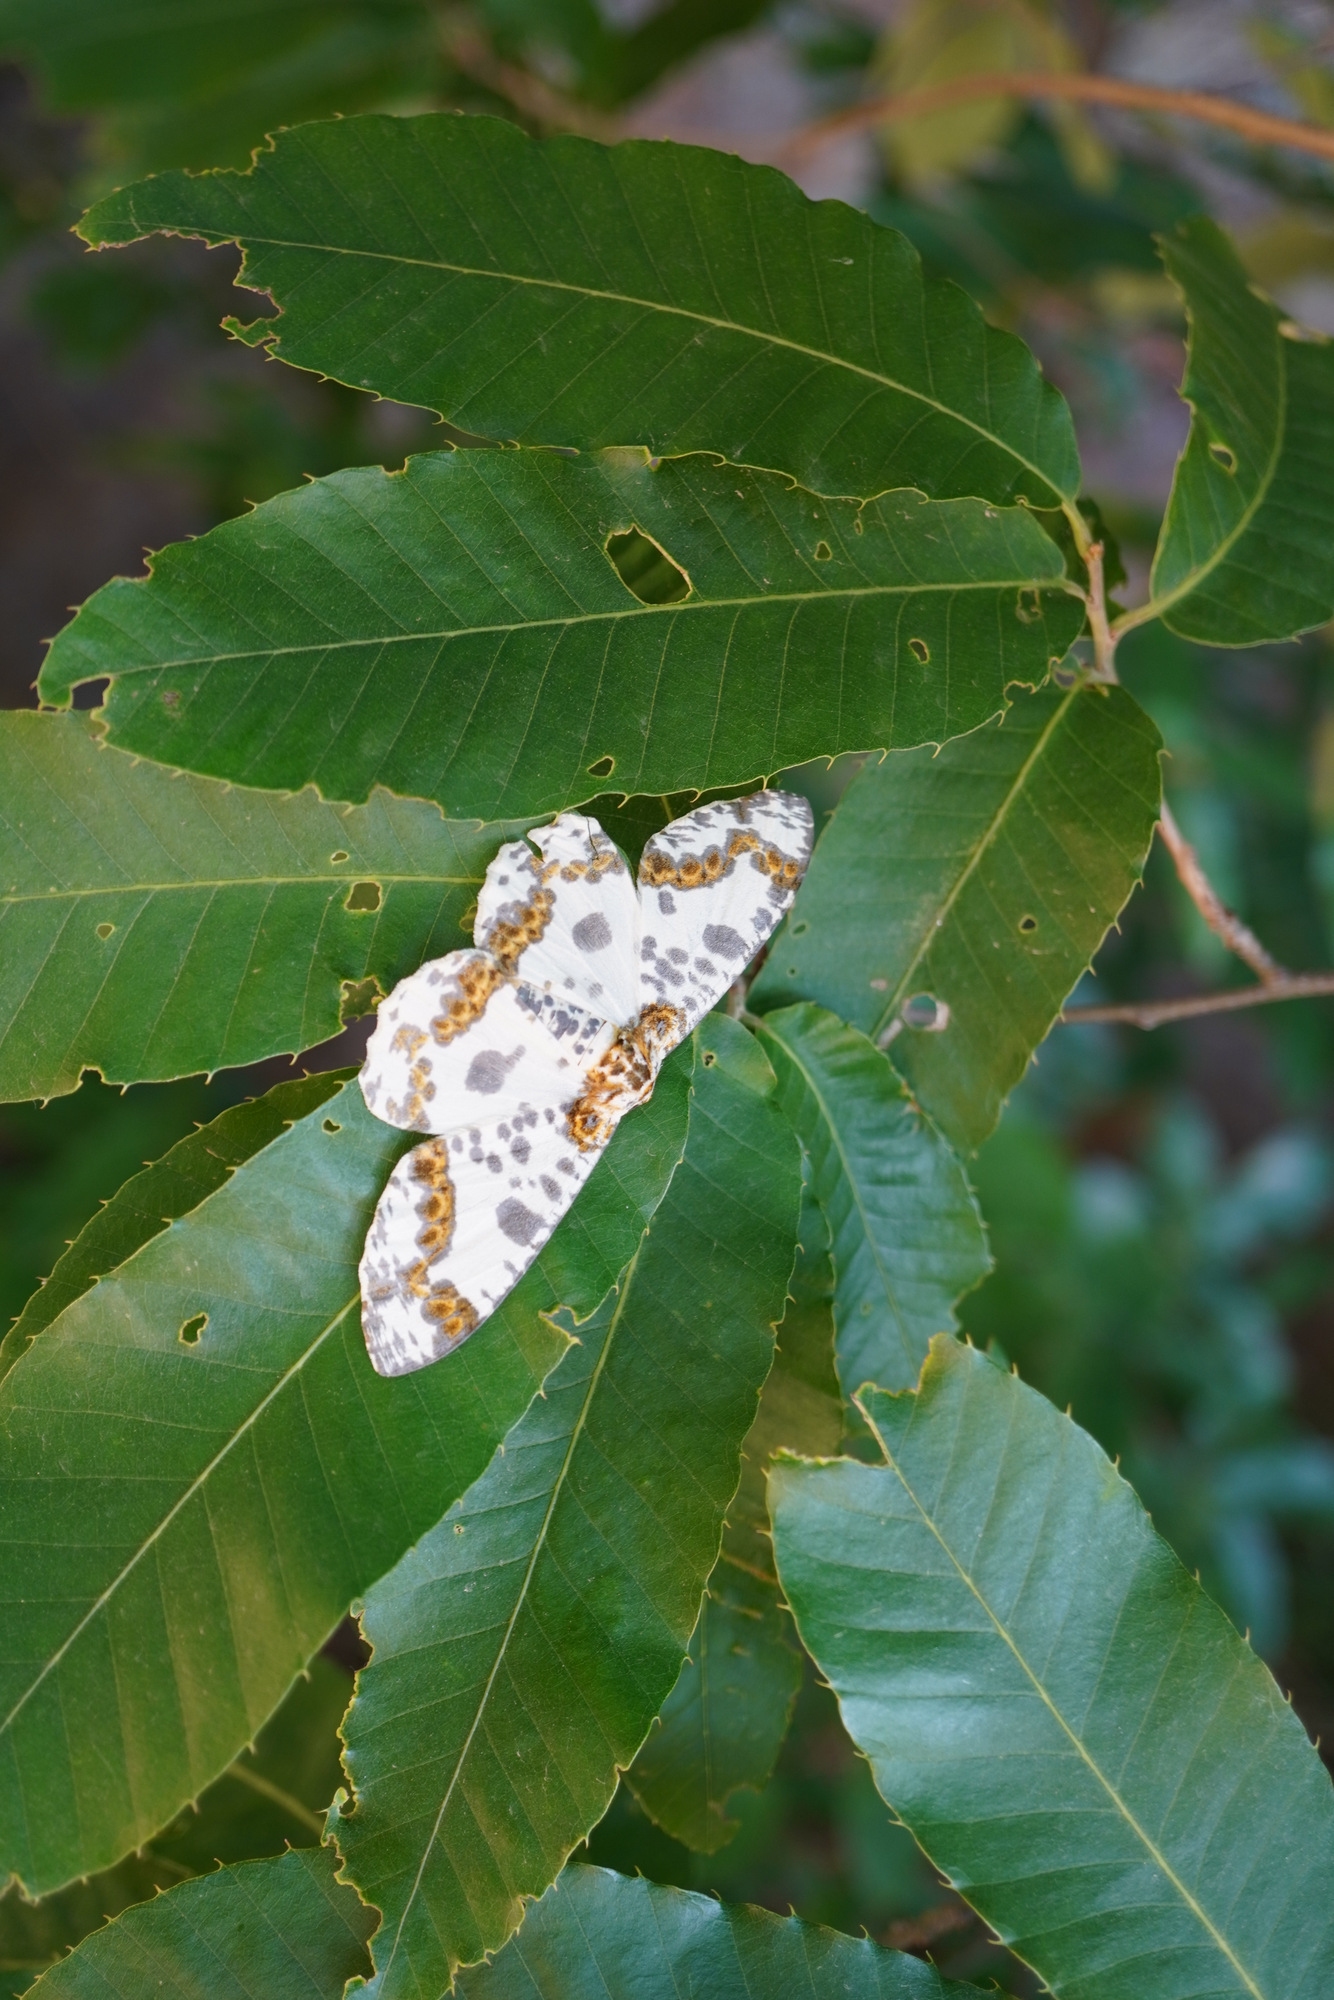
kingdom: Animalia
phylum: Arthropoda
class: Insecta
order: Lepidoptera
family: Geometridae
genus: Biston
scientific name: Biston panterinaria
